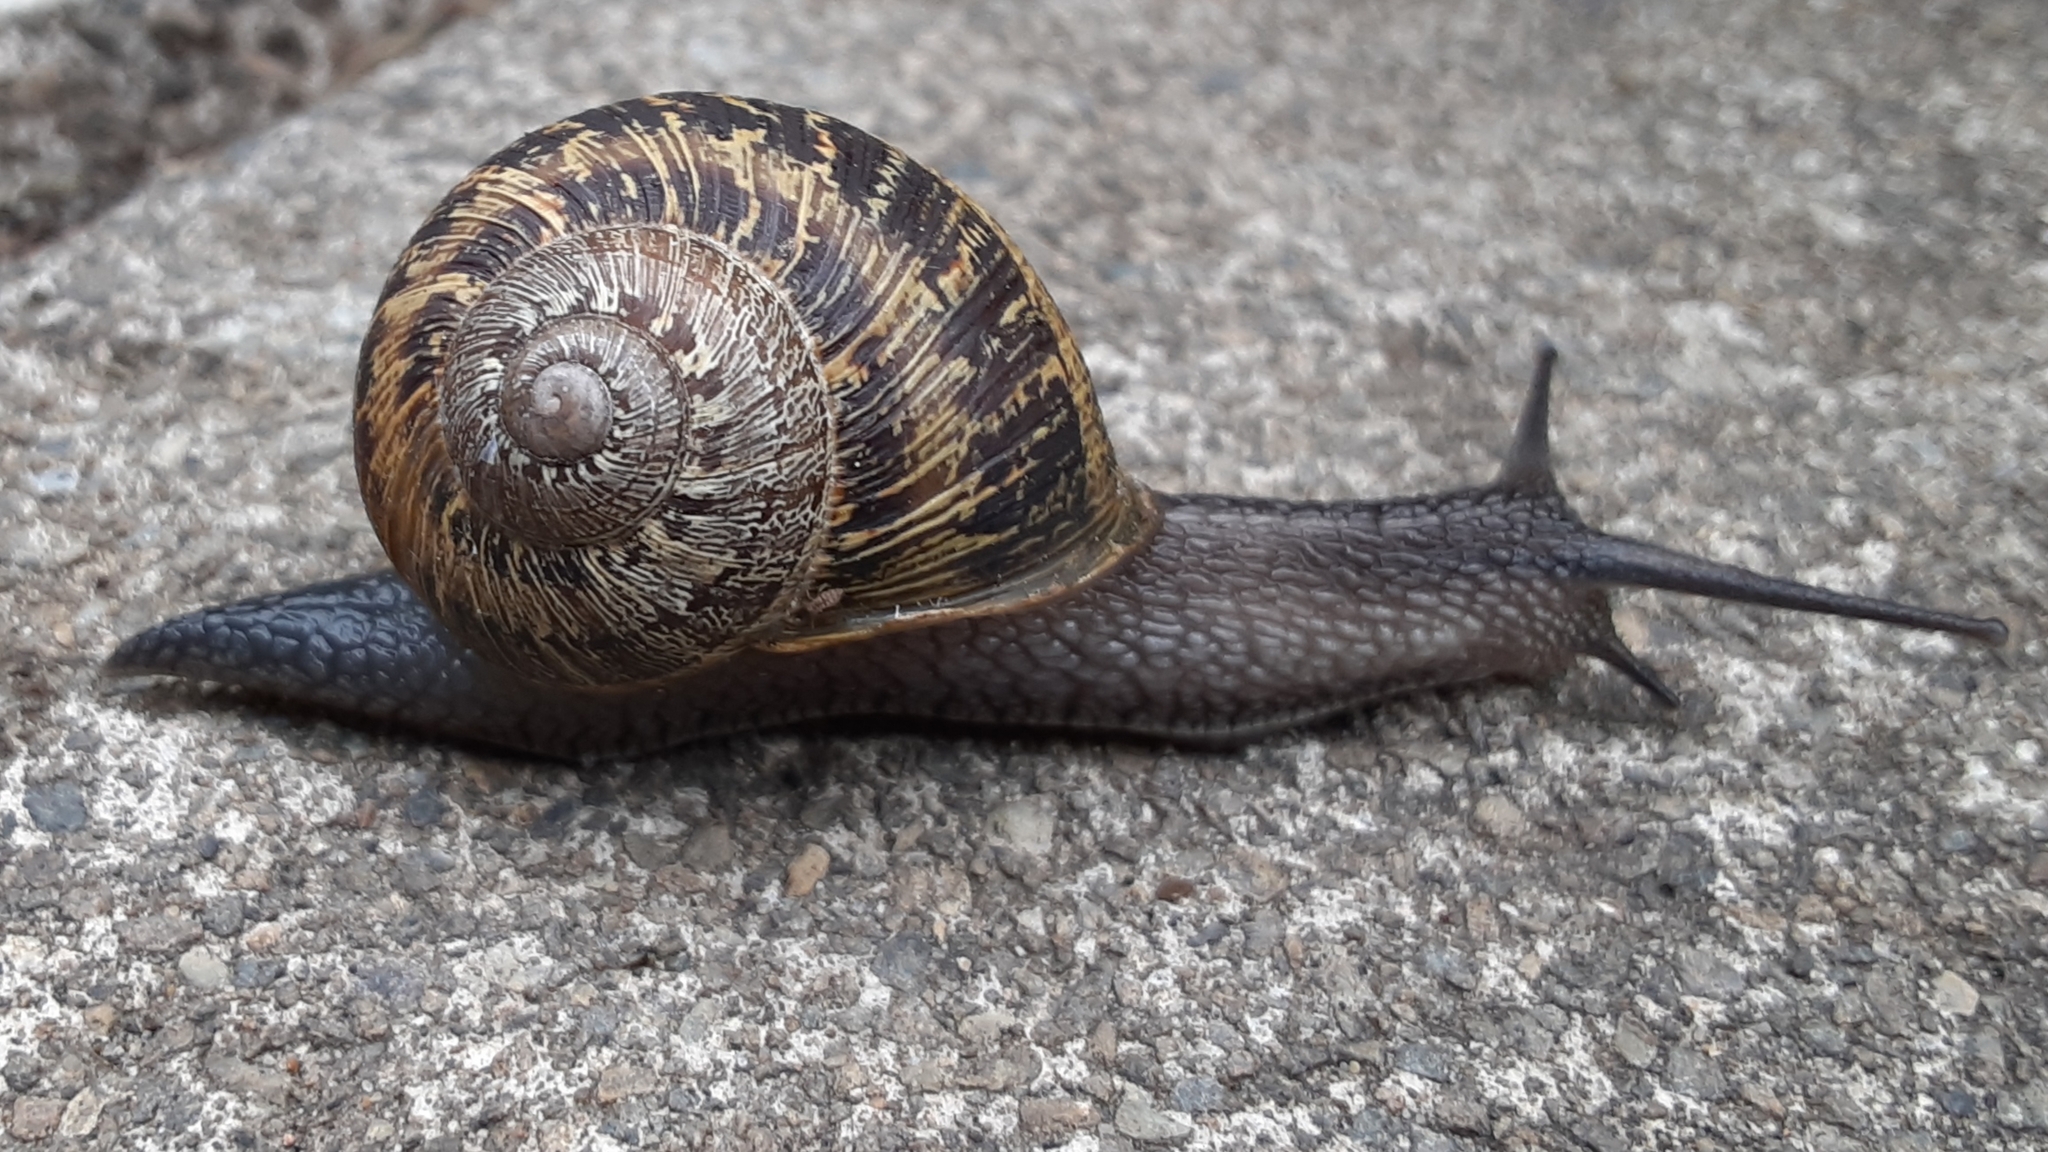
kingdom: Animalia
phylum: Mollusca
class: Gastropoda
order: Stylommatophora
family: Helicidae
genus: Cornu
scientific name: Cornu aspersum
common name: Brown garden snail
